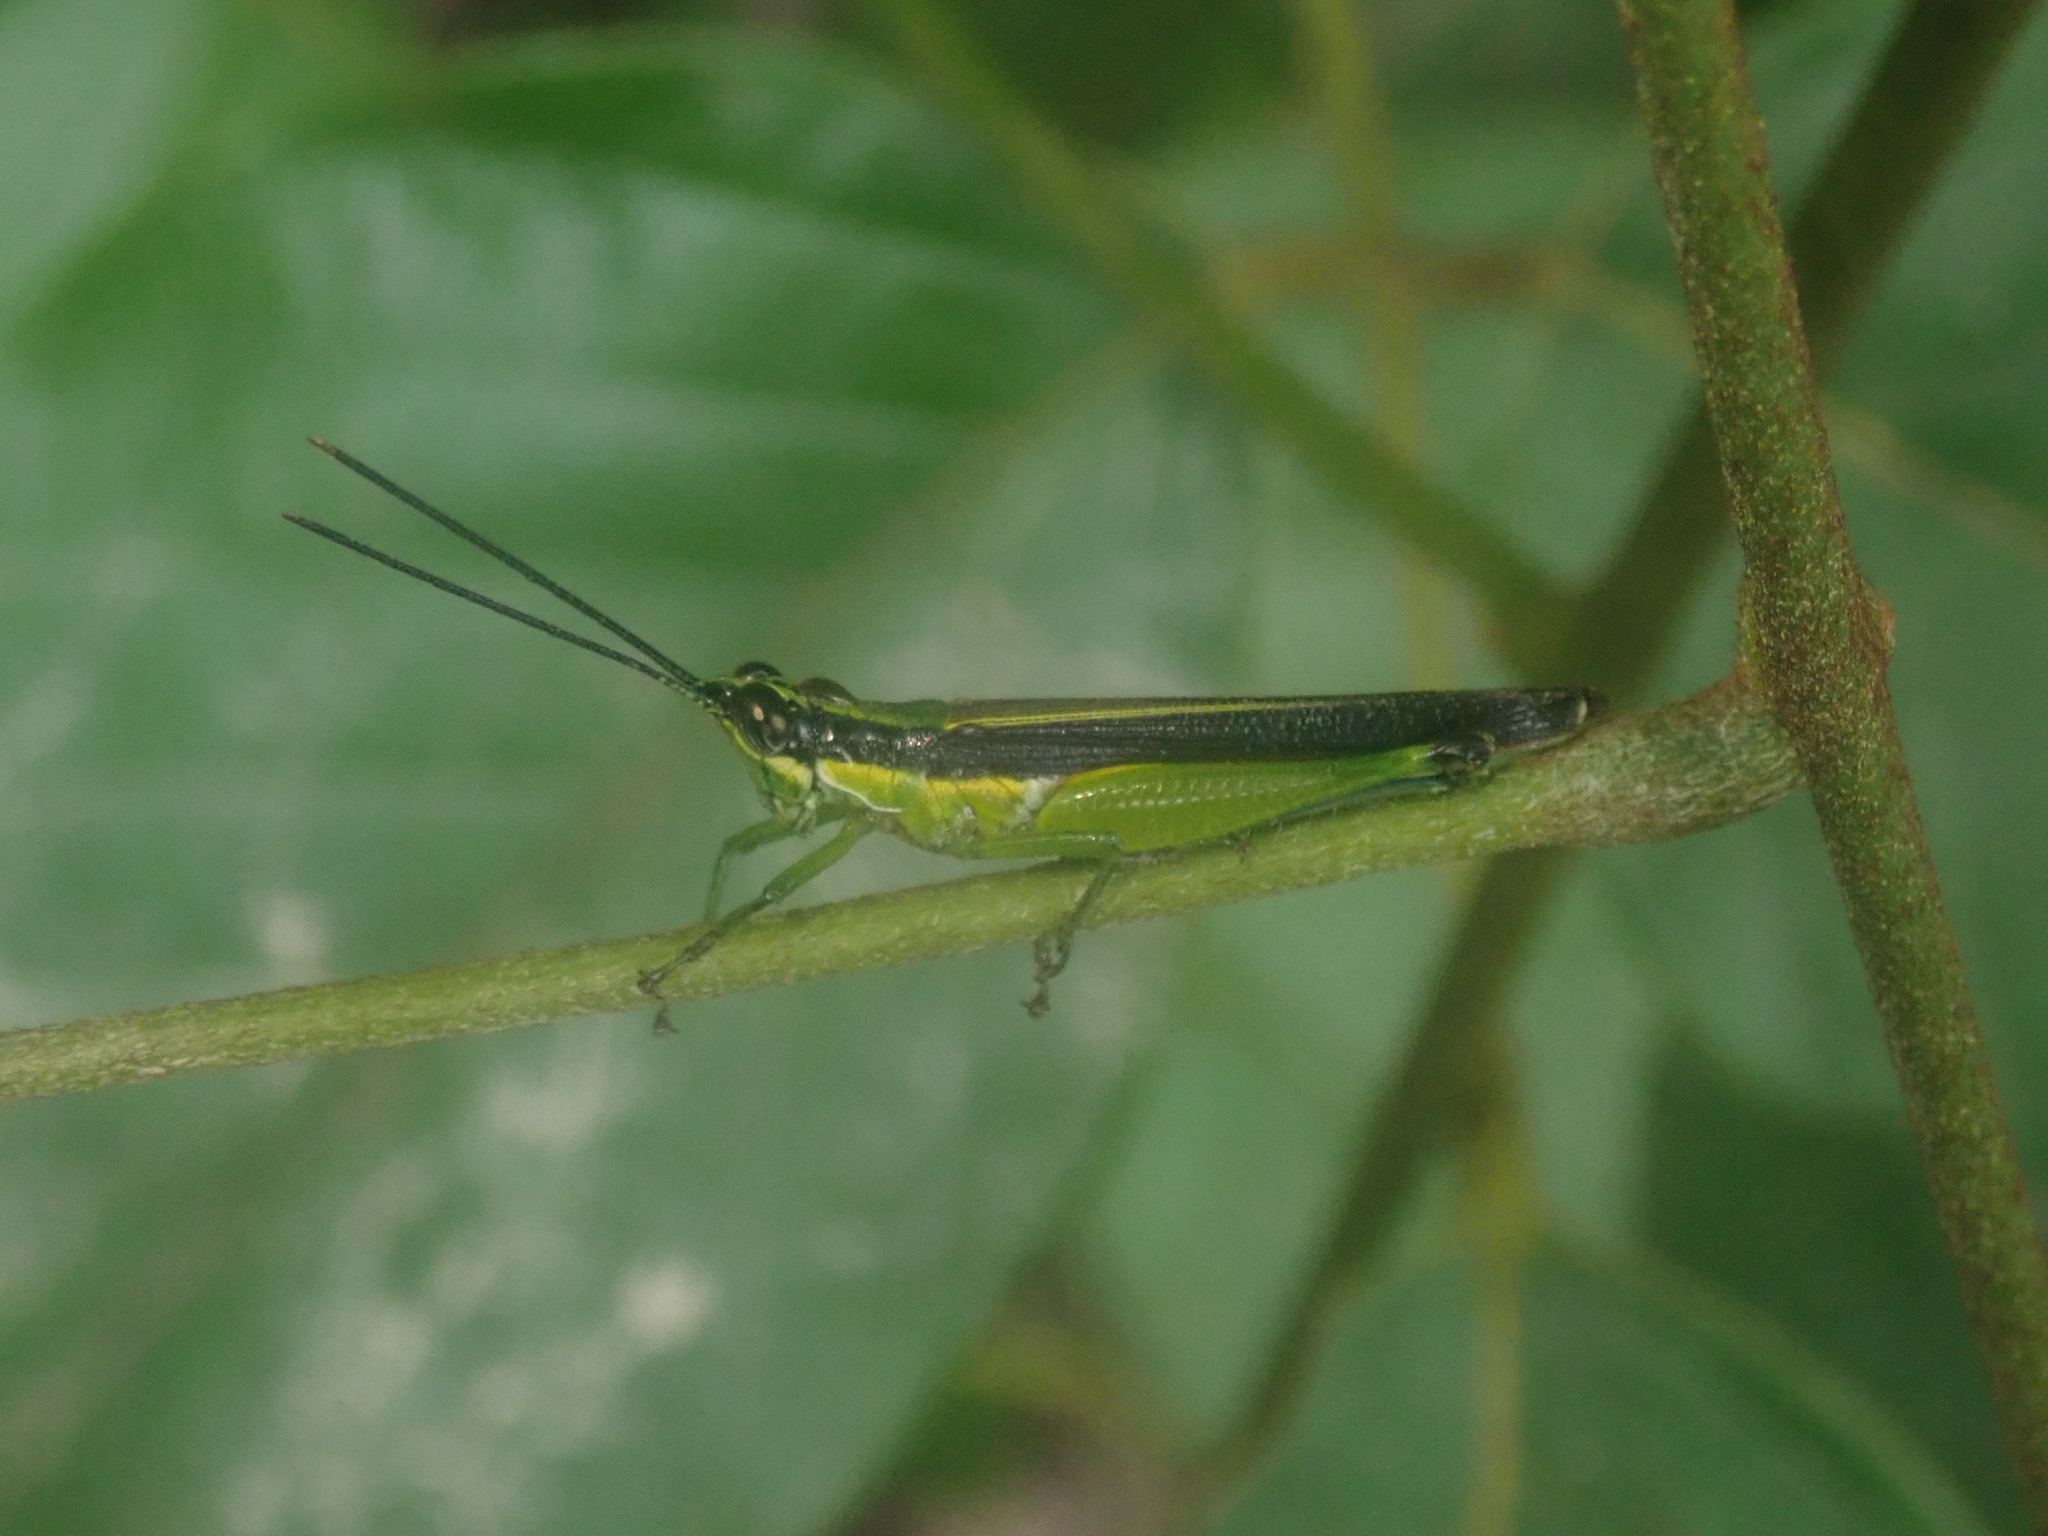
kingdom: Animalia
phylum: Arthropoda
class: Insecta
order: Orthoptera
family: Acrididae
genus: Stenopola
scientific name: Stenopola boliviana
